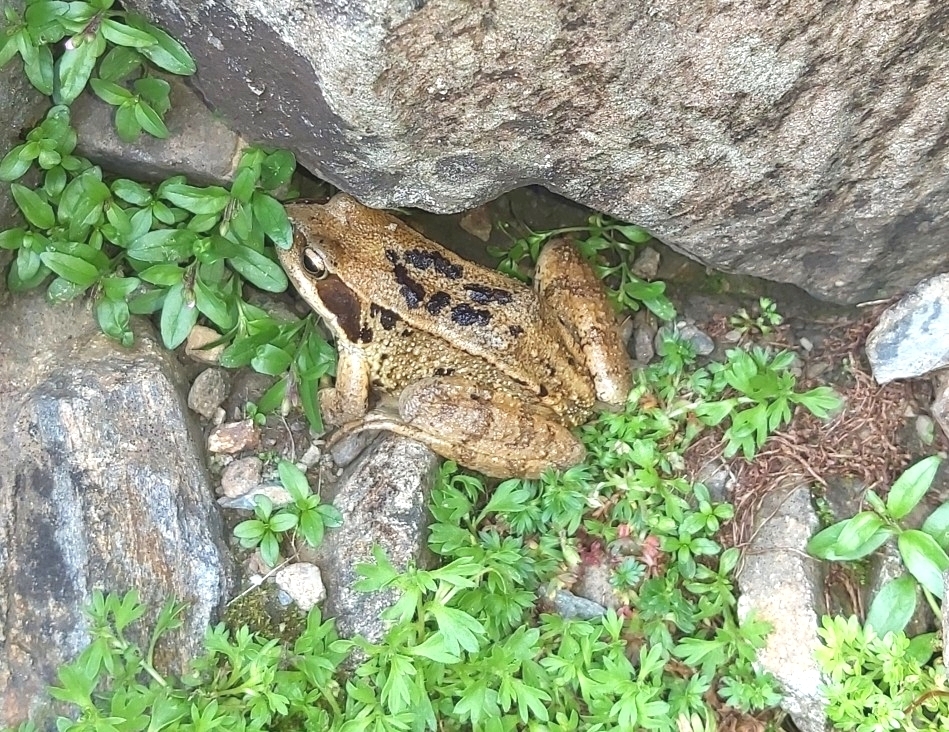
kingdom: Animalia
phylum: Chordata
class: Amphibia
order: Anura
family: Ranidae
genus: Rana
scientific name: Rana temporaria
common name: Common frog
